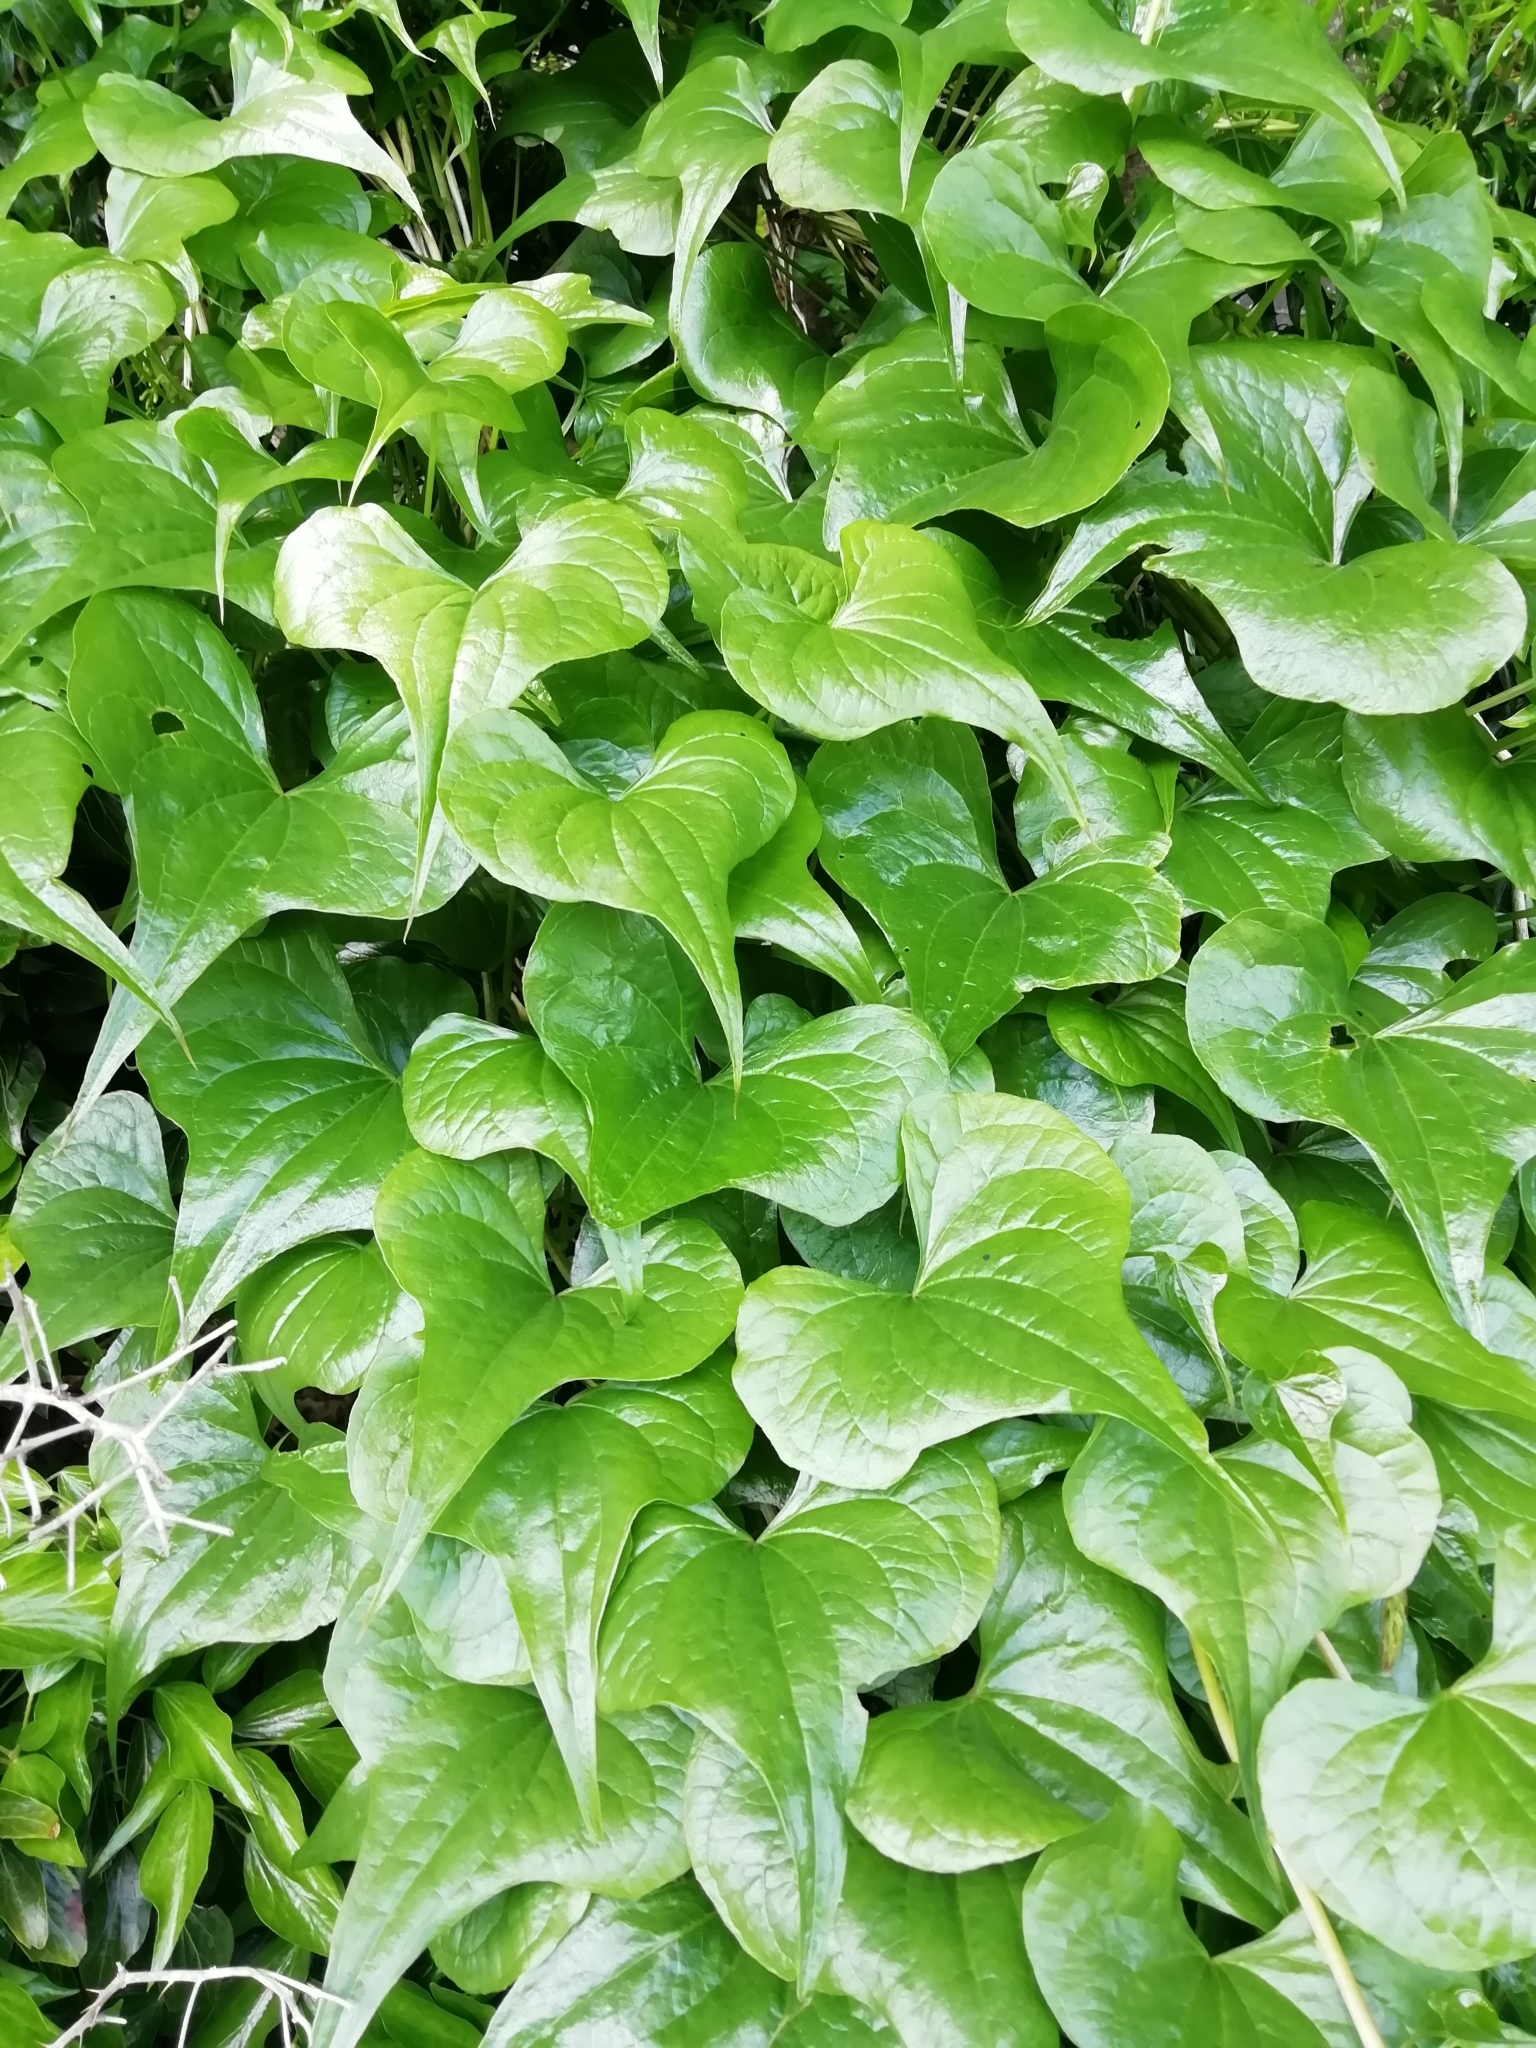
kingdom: Plantae
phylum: Tracheophyta
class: Liliopsida
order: Dioscoreales
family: Dioscoreaceae
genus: Dioscorea
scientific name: Dioscorea communis
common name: Black-bindweed
